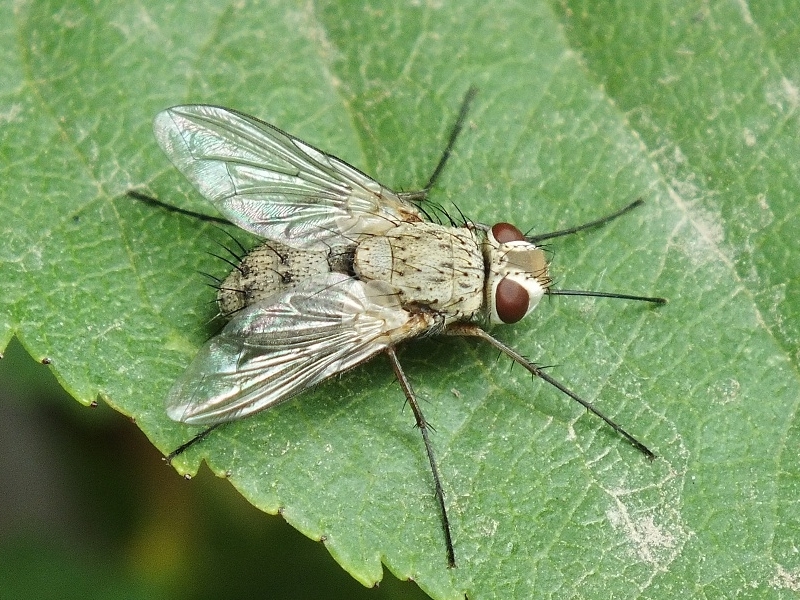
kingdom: Animalia
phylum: Arthropoda
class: Insecta
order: Diptera
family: Tachinidae
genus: Prosena
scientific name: Prosena siberita
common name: Parasitic fly
